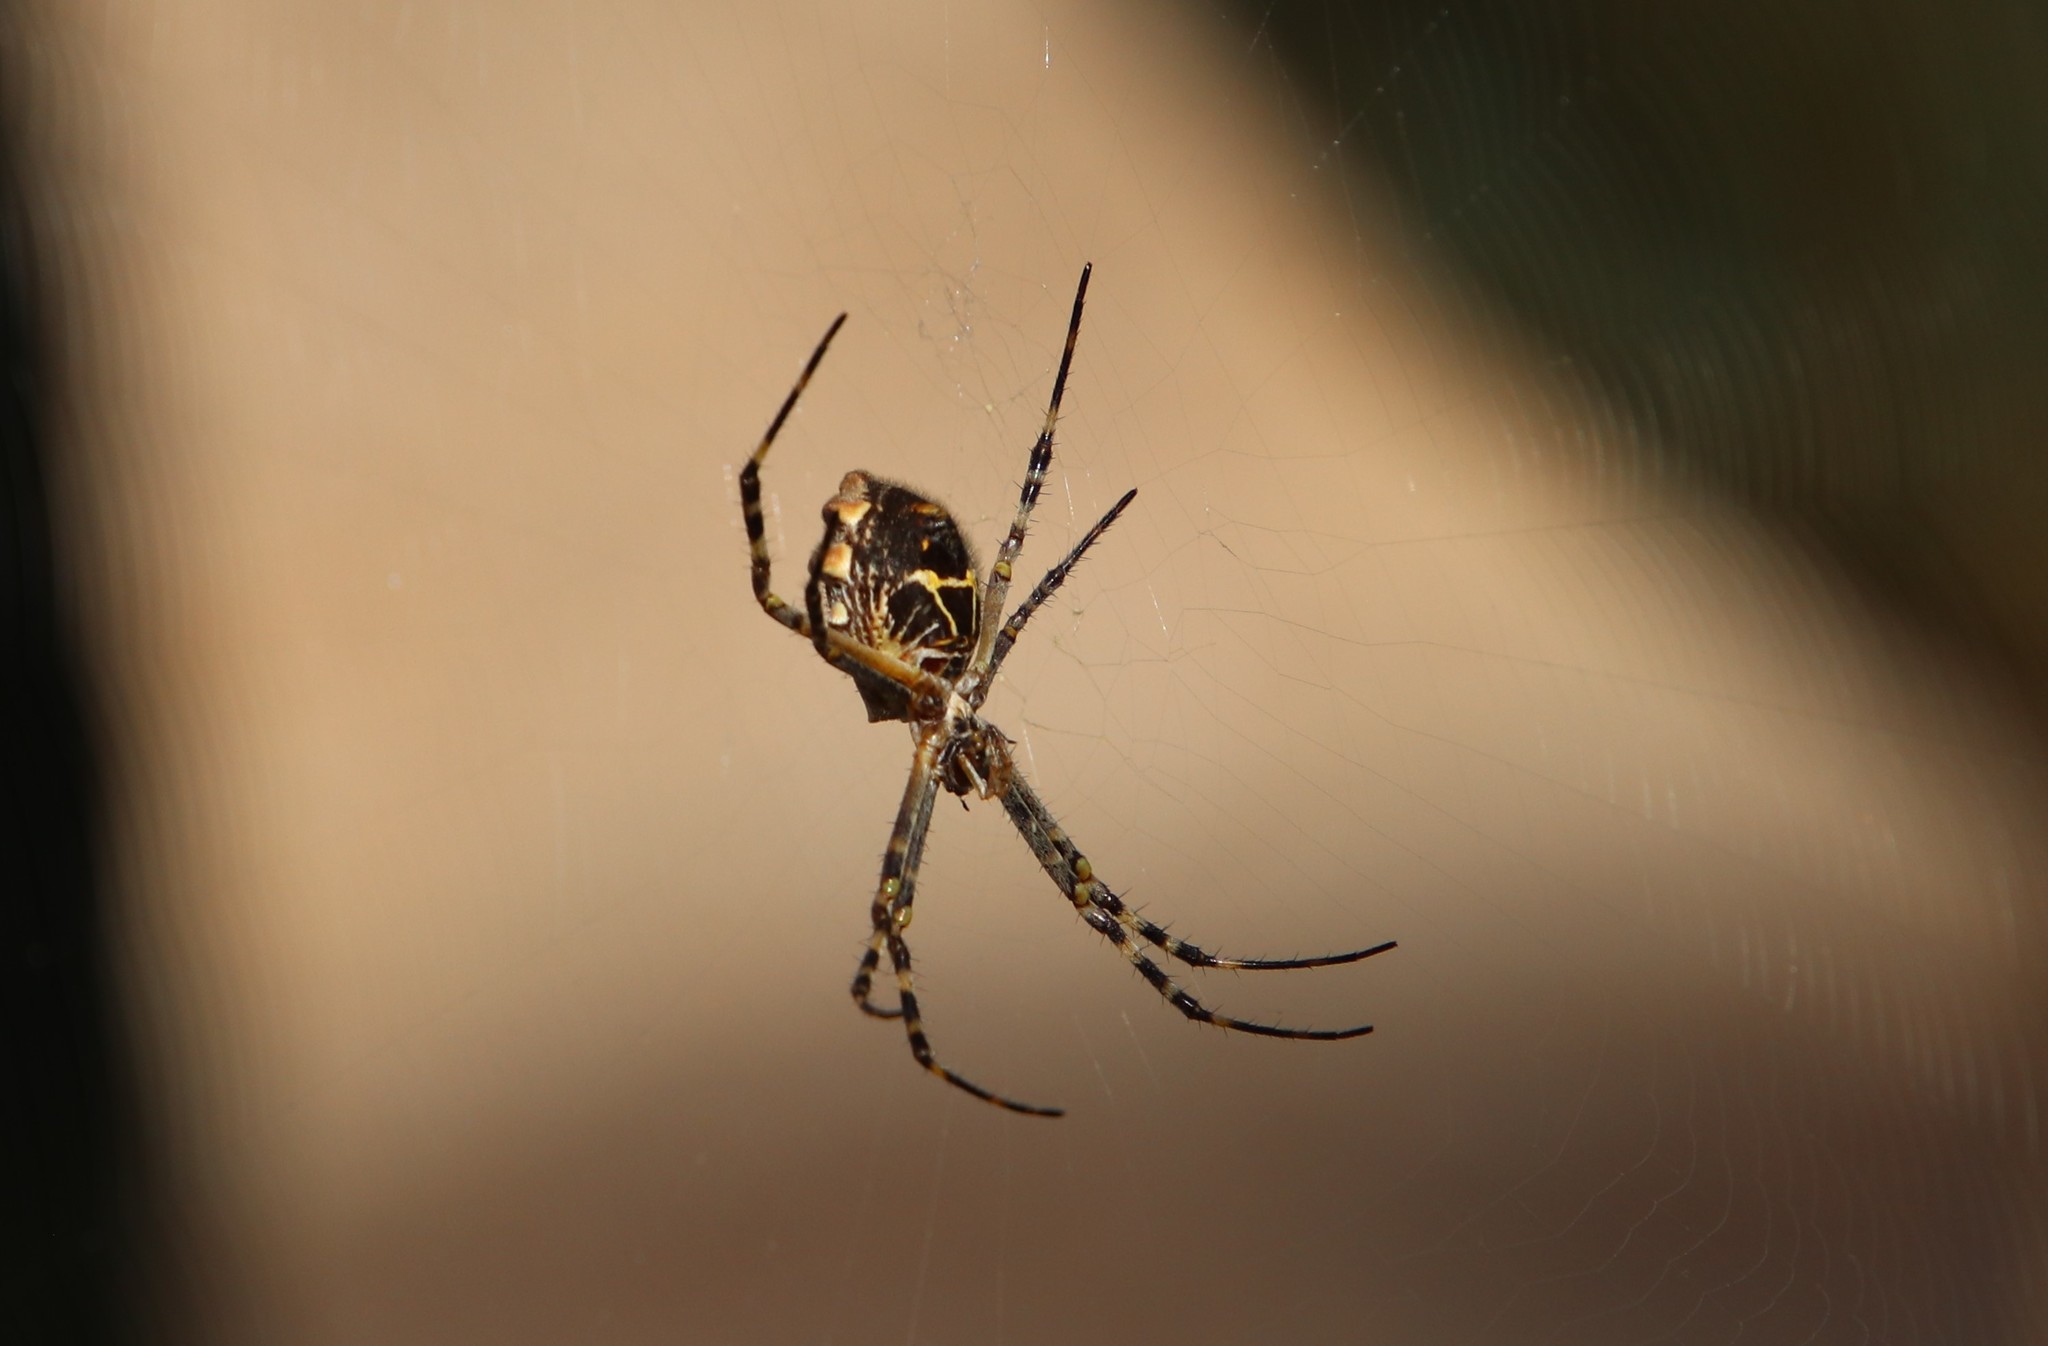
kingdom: Animalia
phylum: Arthropoda
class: Arachnida
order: Araneae
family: Araneidae
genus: Argiope
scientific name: Argiope argentata
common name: Orb weavers
